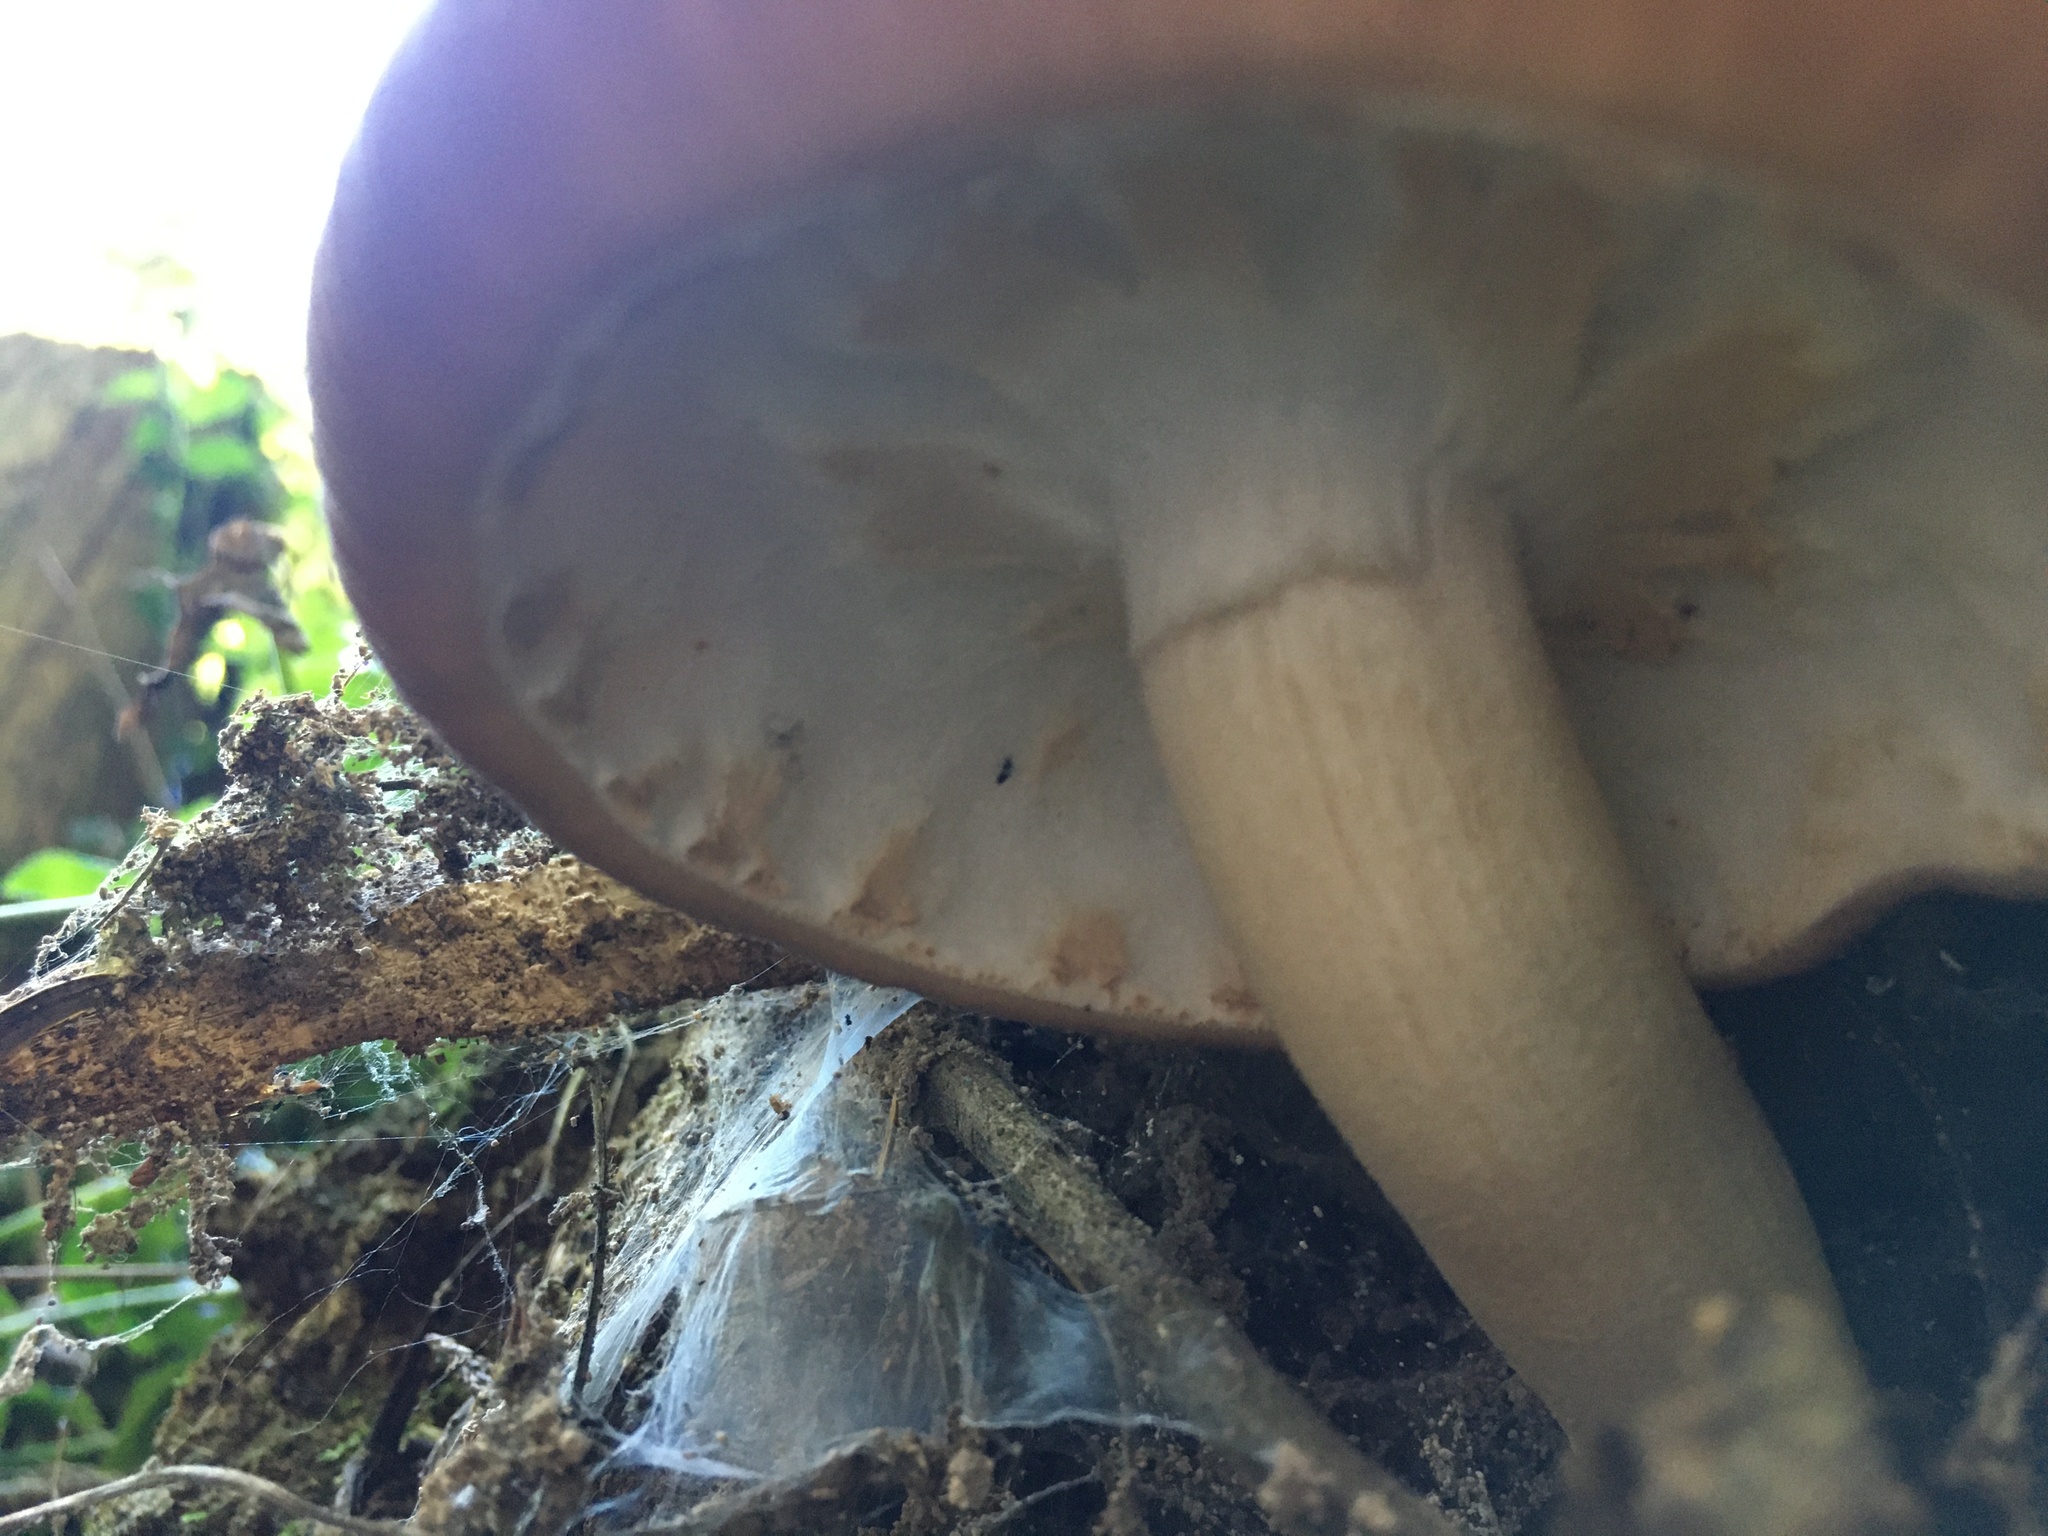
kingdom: Fungi
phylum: Basidiomycota
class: Agaricomycetes
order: Agaricales
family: Tubariaceae
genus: Cyclocybe
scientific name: Cyclocybe parasitica
